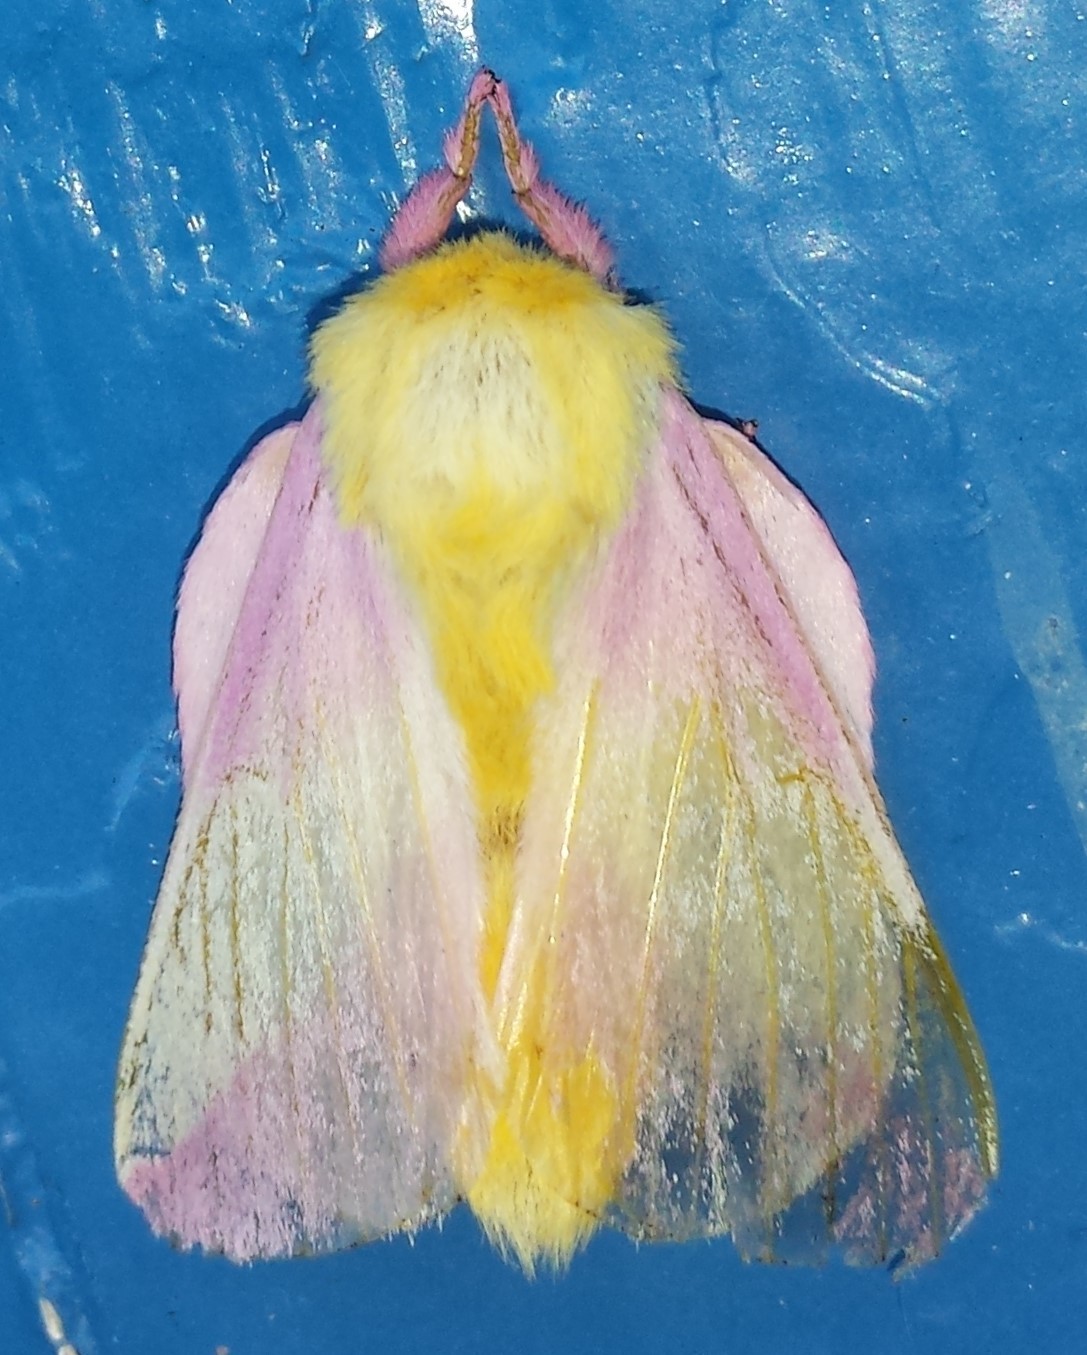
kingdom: Animalia
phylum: Arthropoda
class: Insecta
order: Lepidoptera
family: Saturniidae
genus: Dryocampa
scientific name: Dryocampa rubicunda
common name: Rosy maple moth
